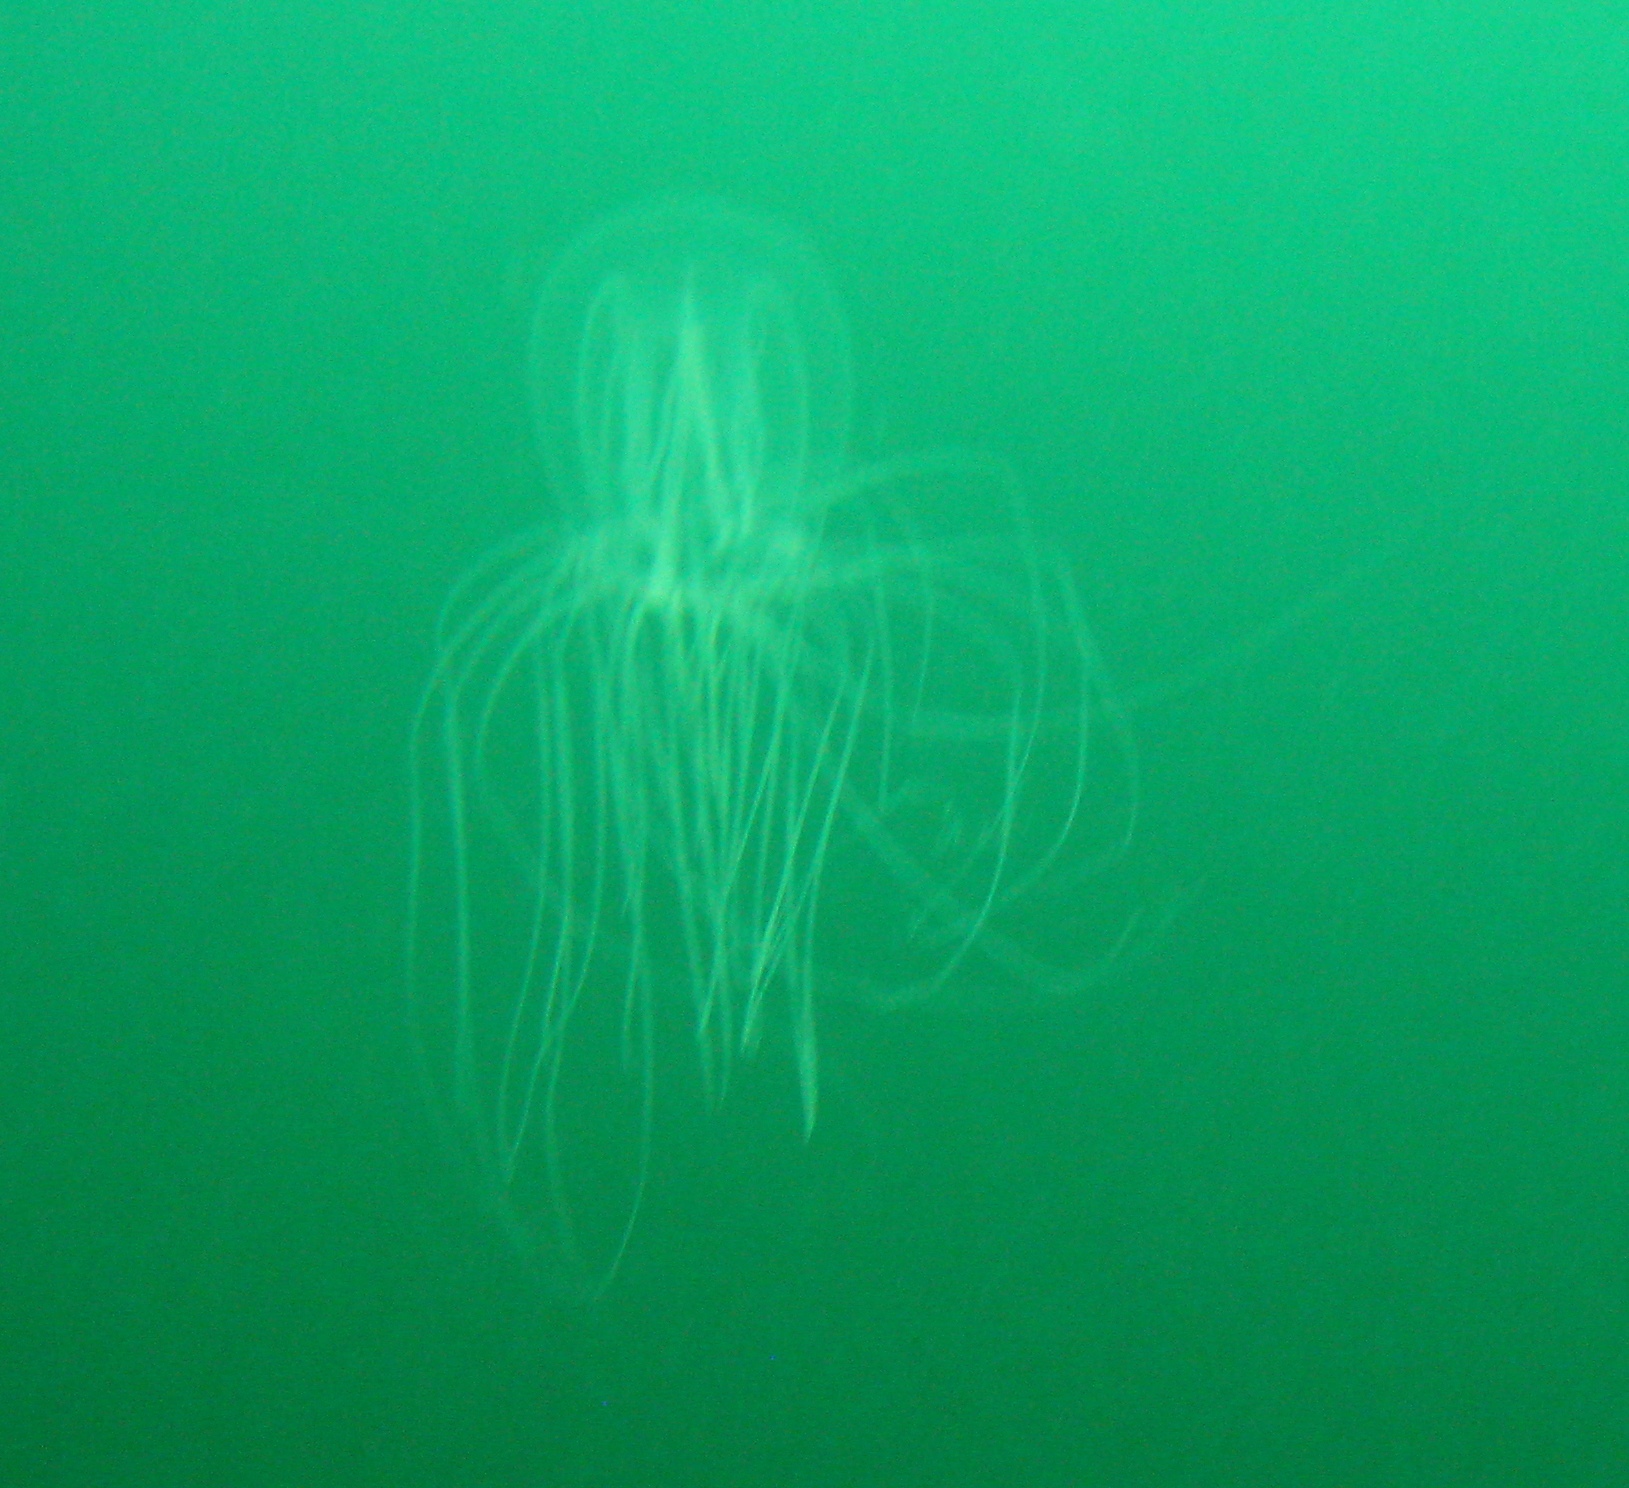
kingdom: Animalia
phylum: Cnidaria
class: Hydrozoa
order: Anthoathecata
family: Corynidae
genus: Polyorchis
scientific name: Polyorchis penicillatus
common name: Penicillate jellyfish
